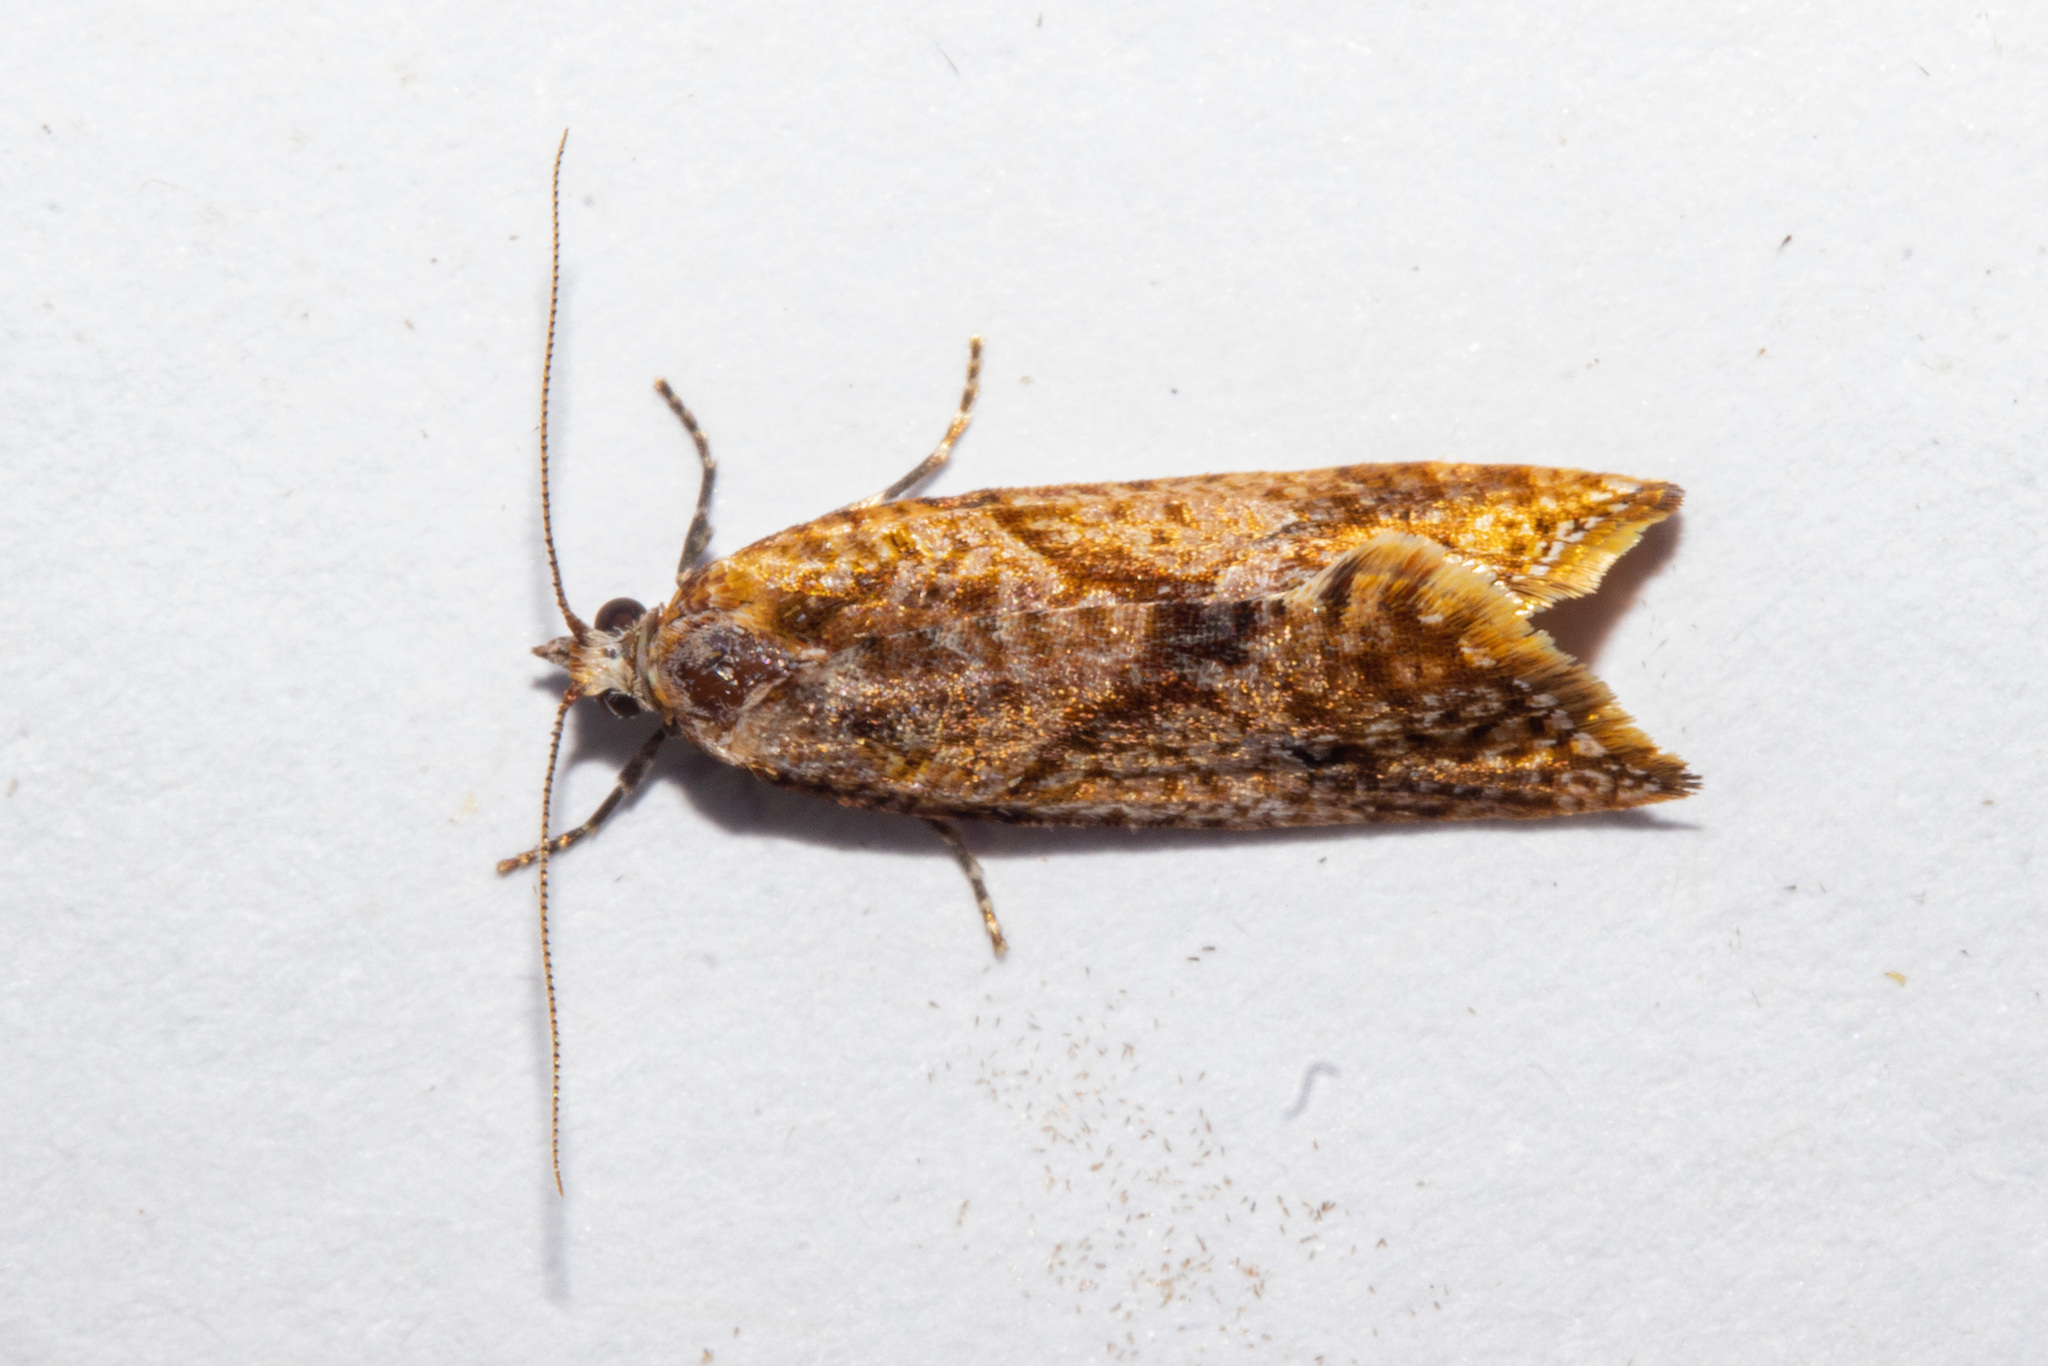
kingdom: Animalia
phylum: Arthropoda
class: Insecta
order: Lepidoptera
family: Tortricidae
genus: Pyrgotis
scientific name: Pyrgotis plagiatana
